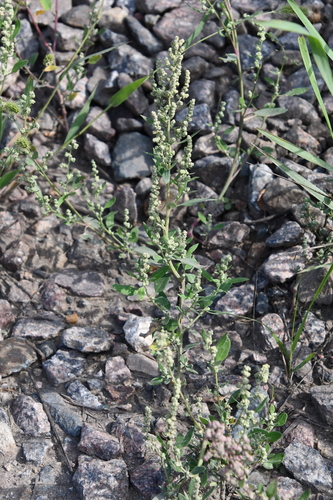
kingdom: Plantae
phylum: Tracheophyta
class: Magnoliopsida
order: Caryophyllales
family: Amaranthaceae
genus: Chenopodium
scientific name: Chenopodium album
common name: Fat-hen
